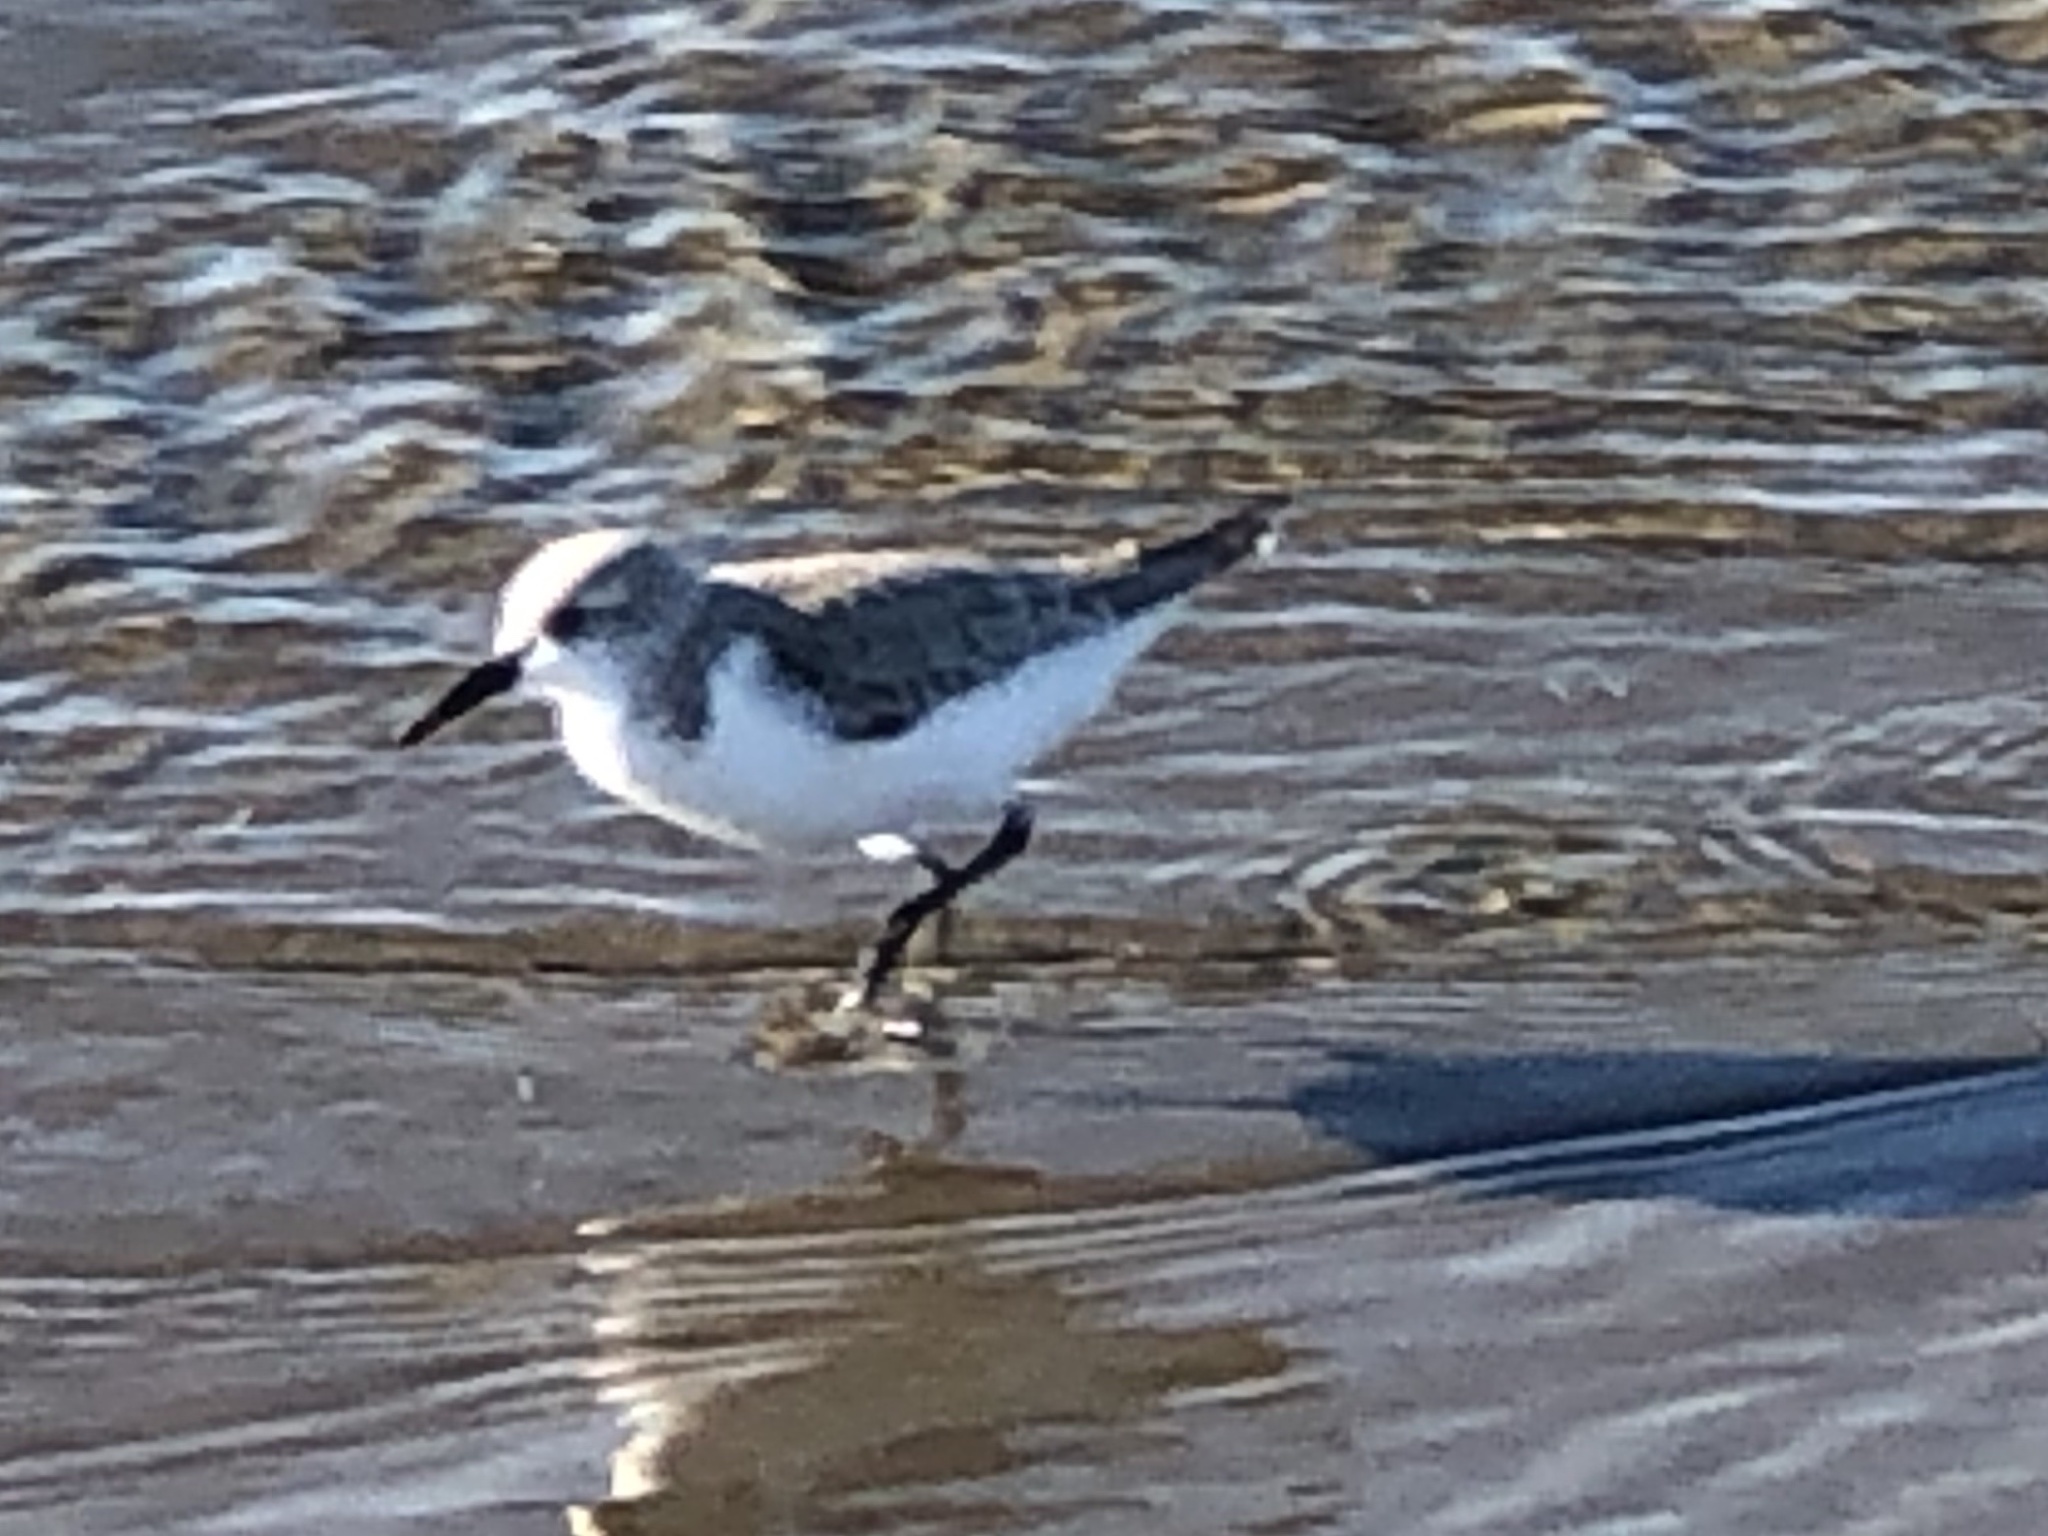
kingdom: Animalia
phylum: Chordata
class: Aves
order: Charadriiformes
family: Scolopacidae
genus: Calidris
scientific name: Calidris alba
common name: Sanderling
